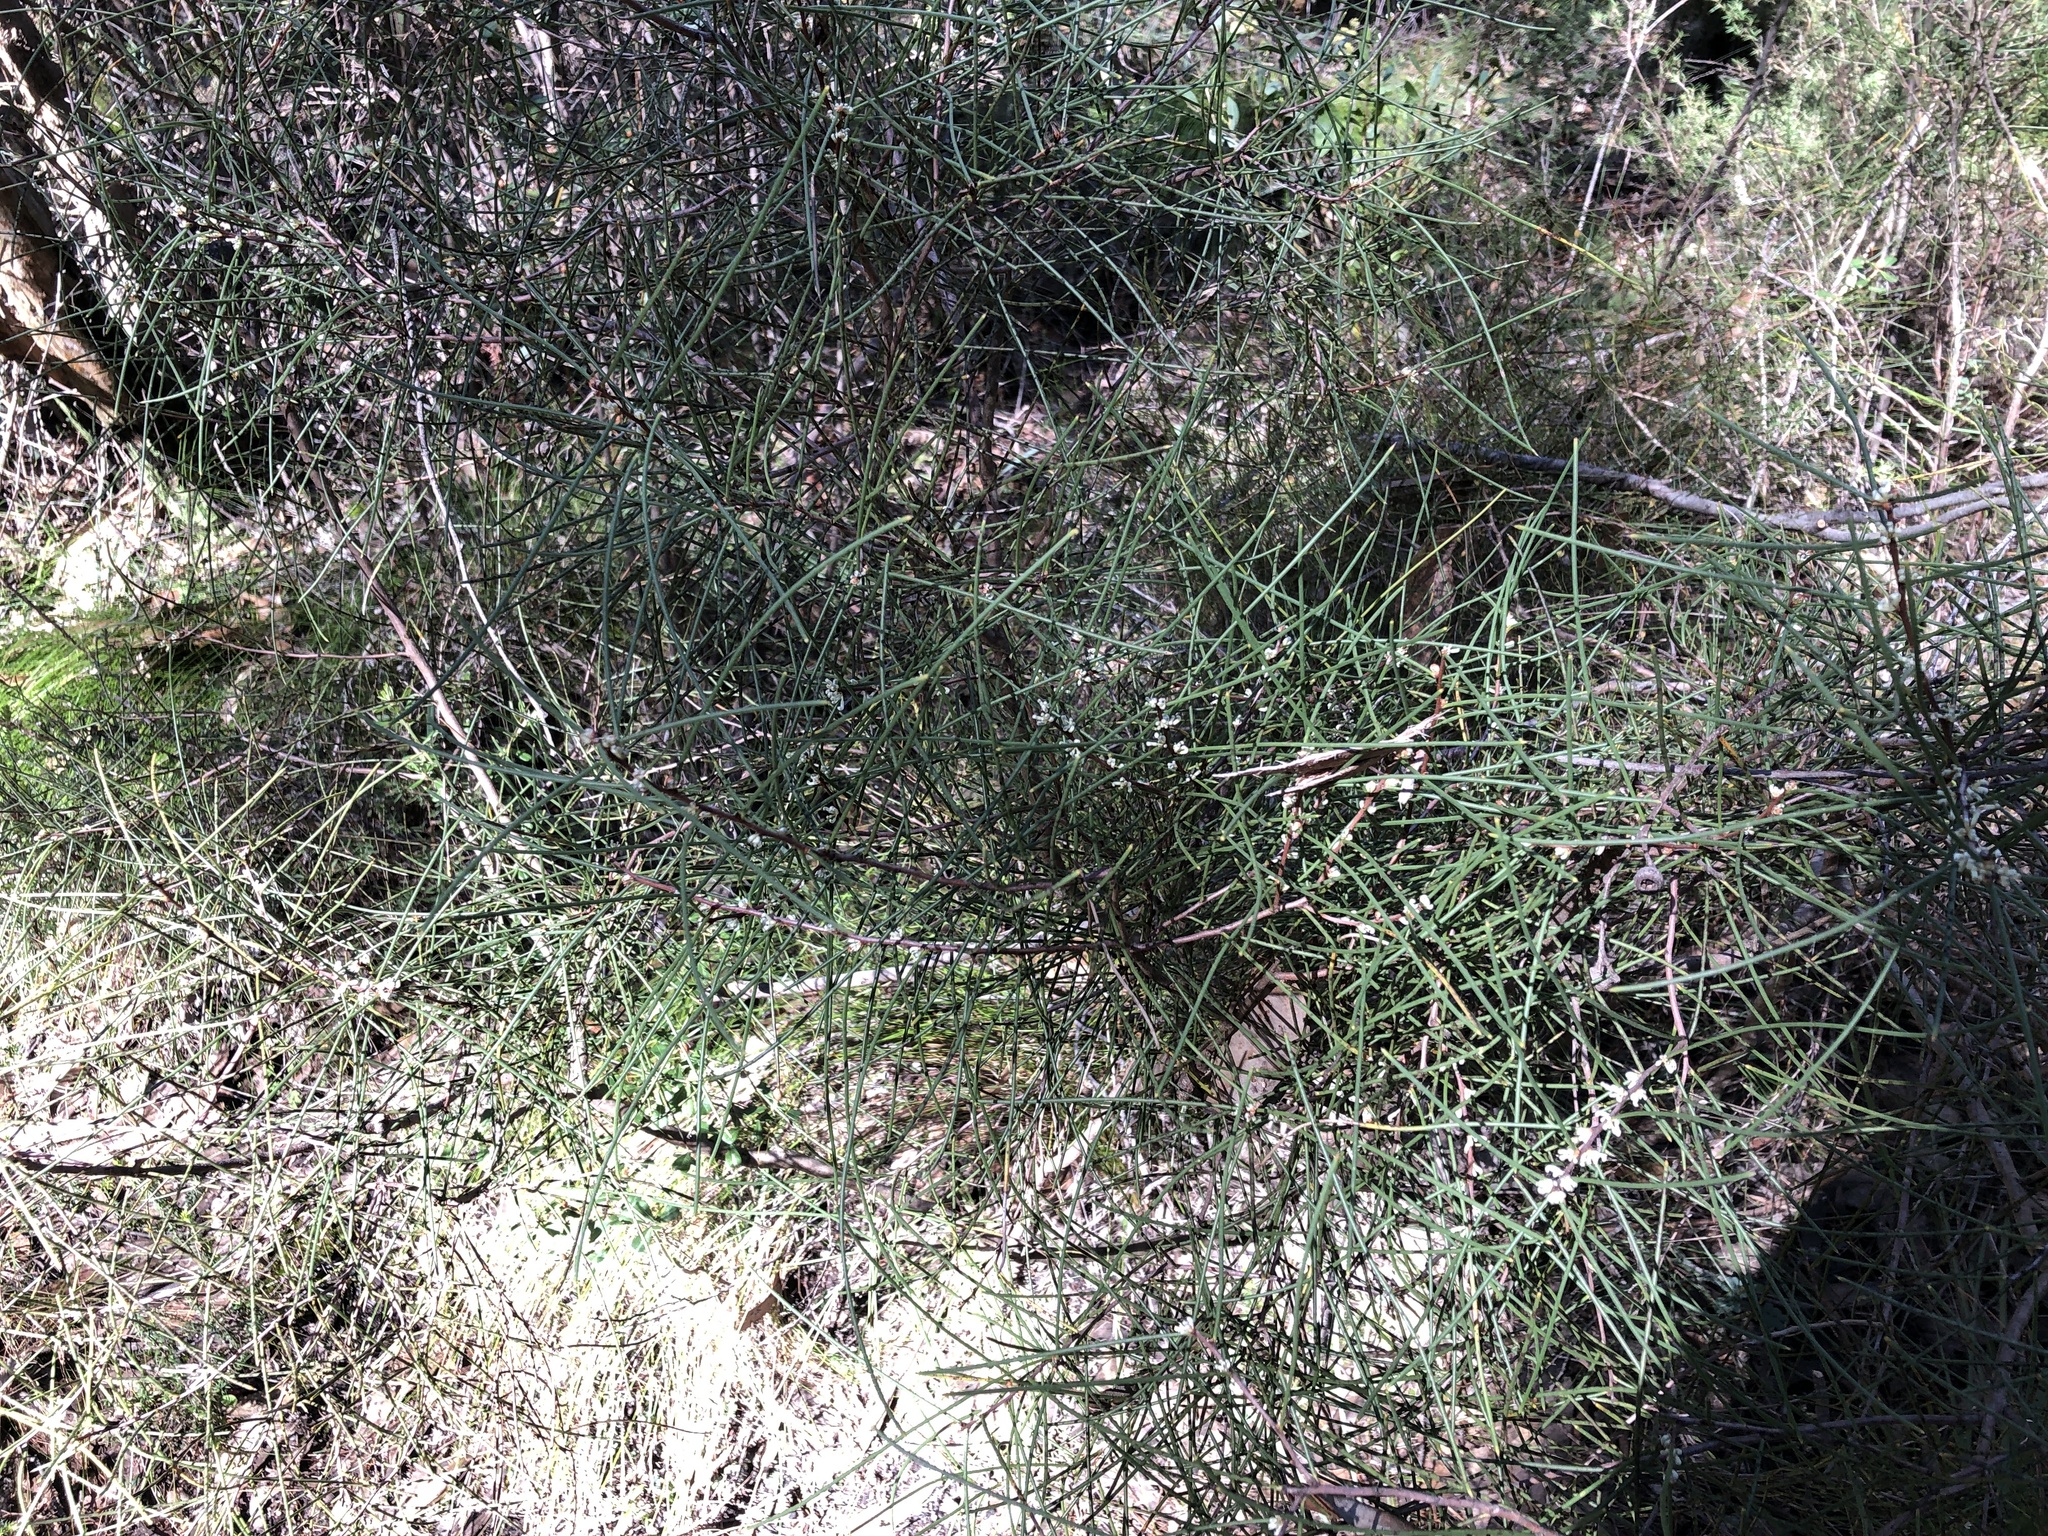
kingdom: Plantae
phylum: Tracheophyta
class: Magnoliopsida
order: Proteales
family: Proteaceae
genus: Hakea
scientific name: Hakea rostrata
